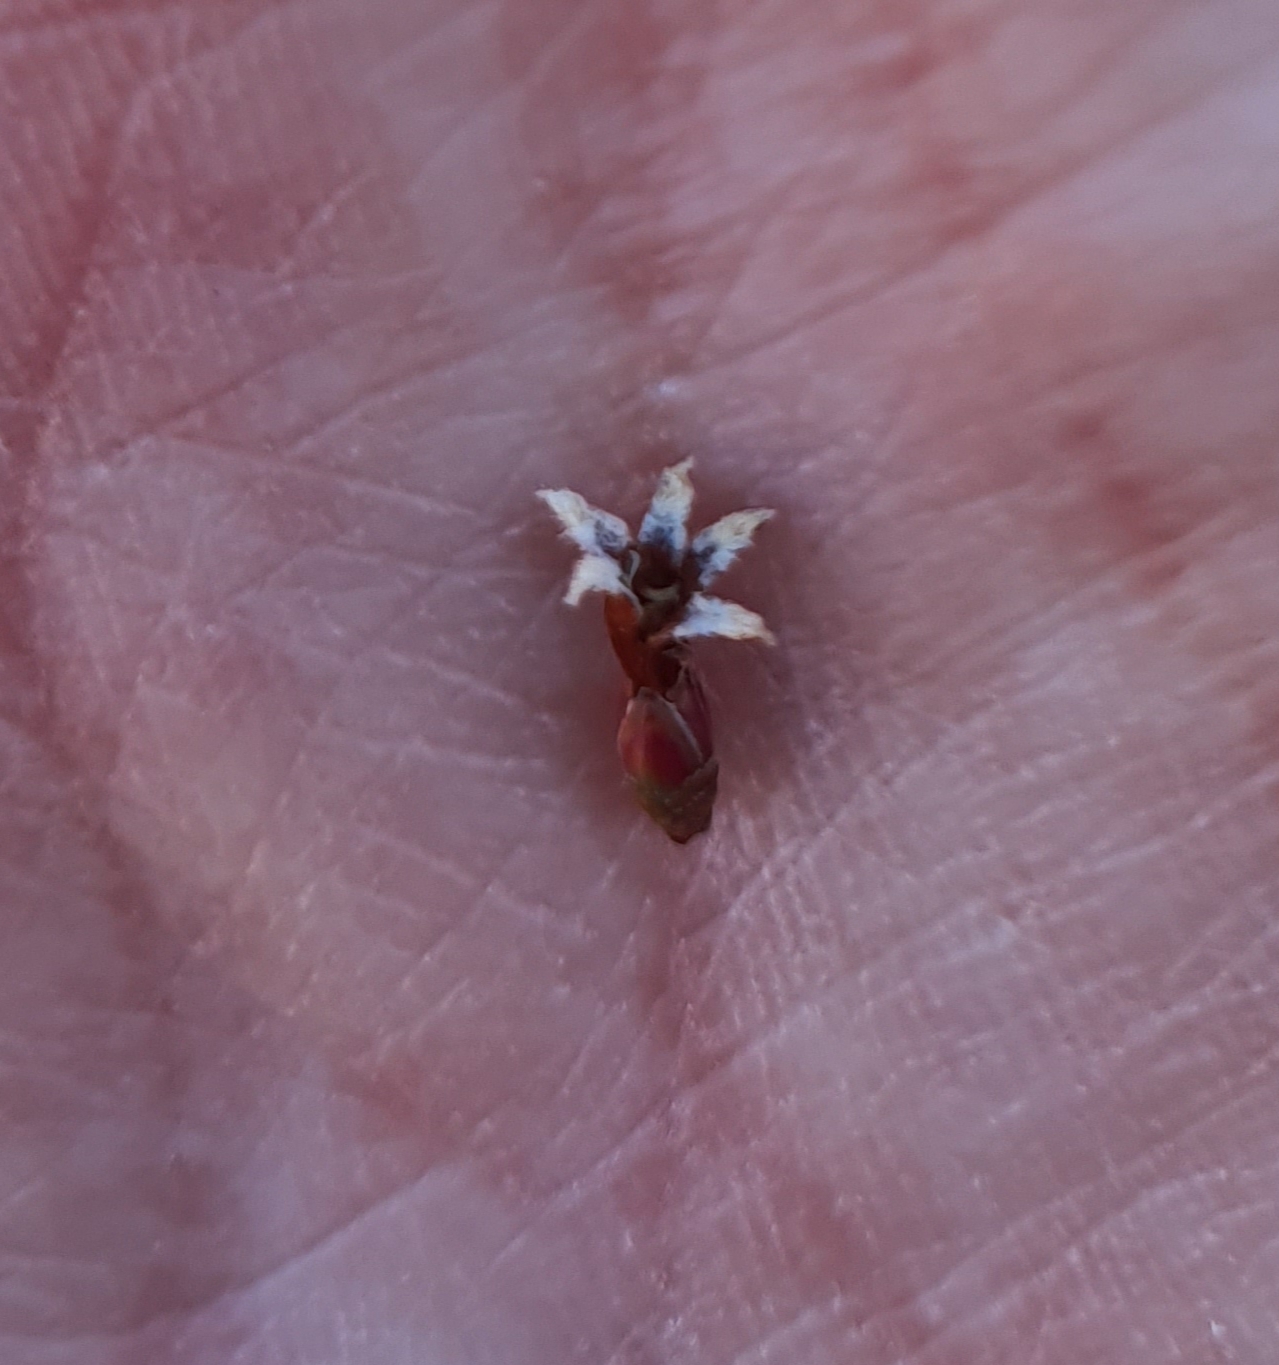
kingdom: Plantae
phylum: Tracheophyta
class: Magnoliopsida
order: Ericales
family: Ericaceae
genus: Pentachondra
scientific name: Pentachondra pumila
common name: Carpet-heath
